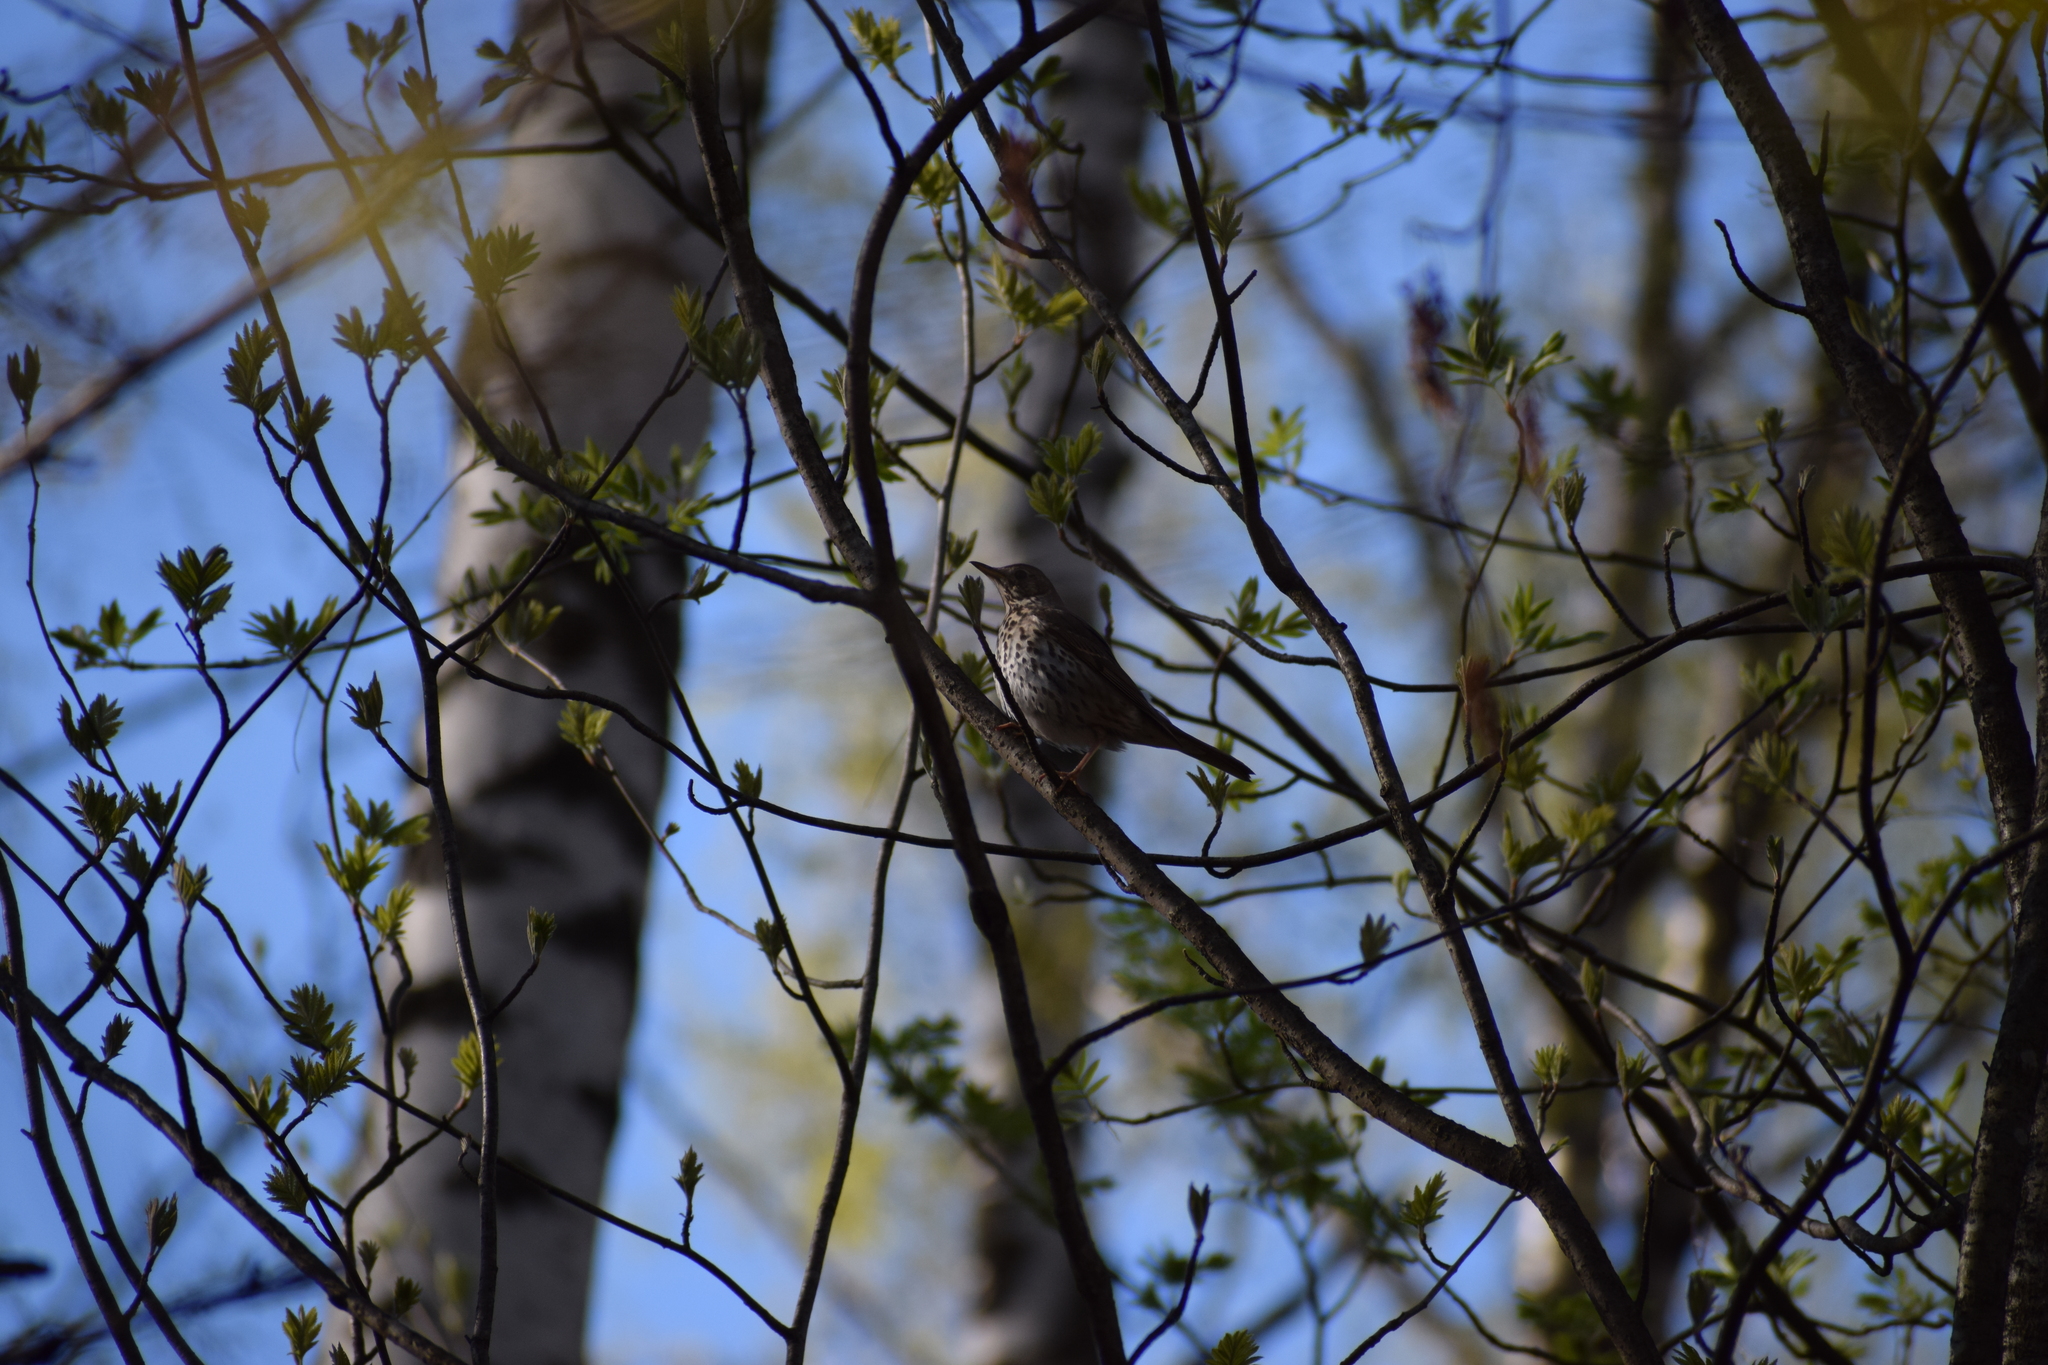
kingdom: Animalia
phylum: Chordata
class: Aves
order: Passeriformes
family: Turdidae
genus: Turdus
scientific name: Turdus philomelos
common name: Song thrush
